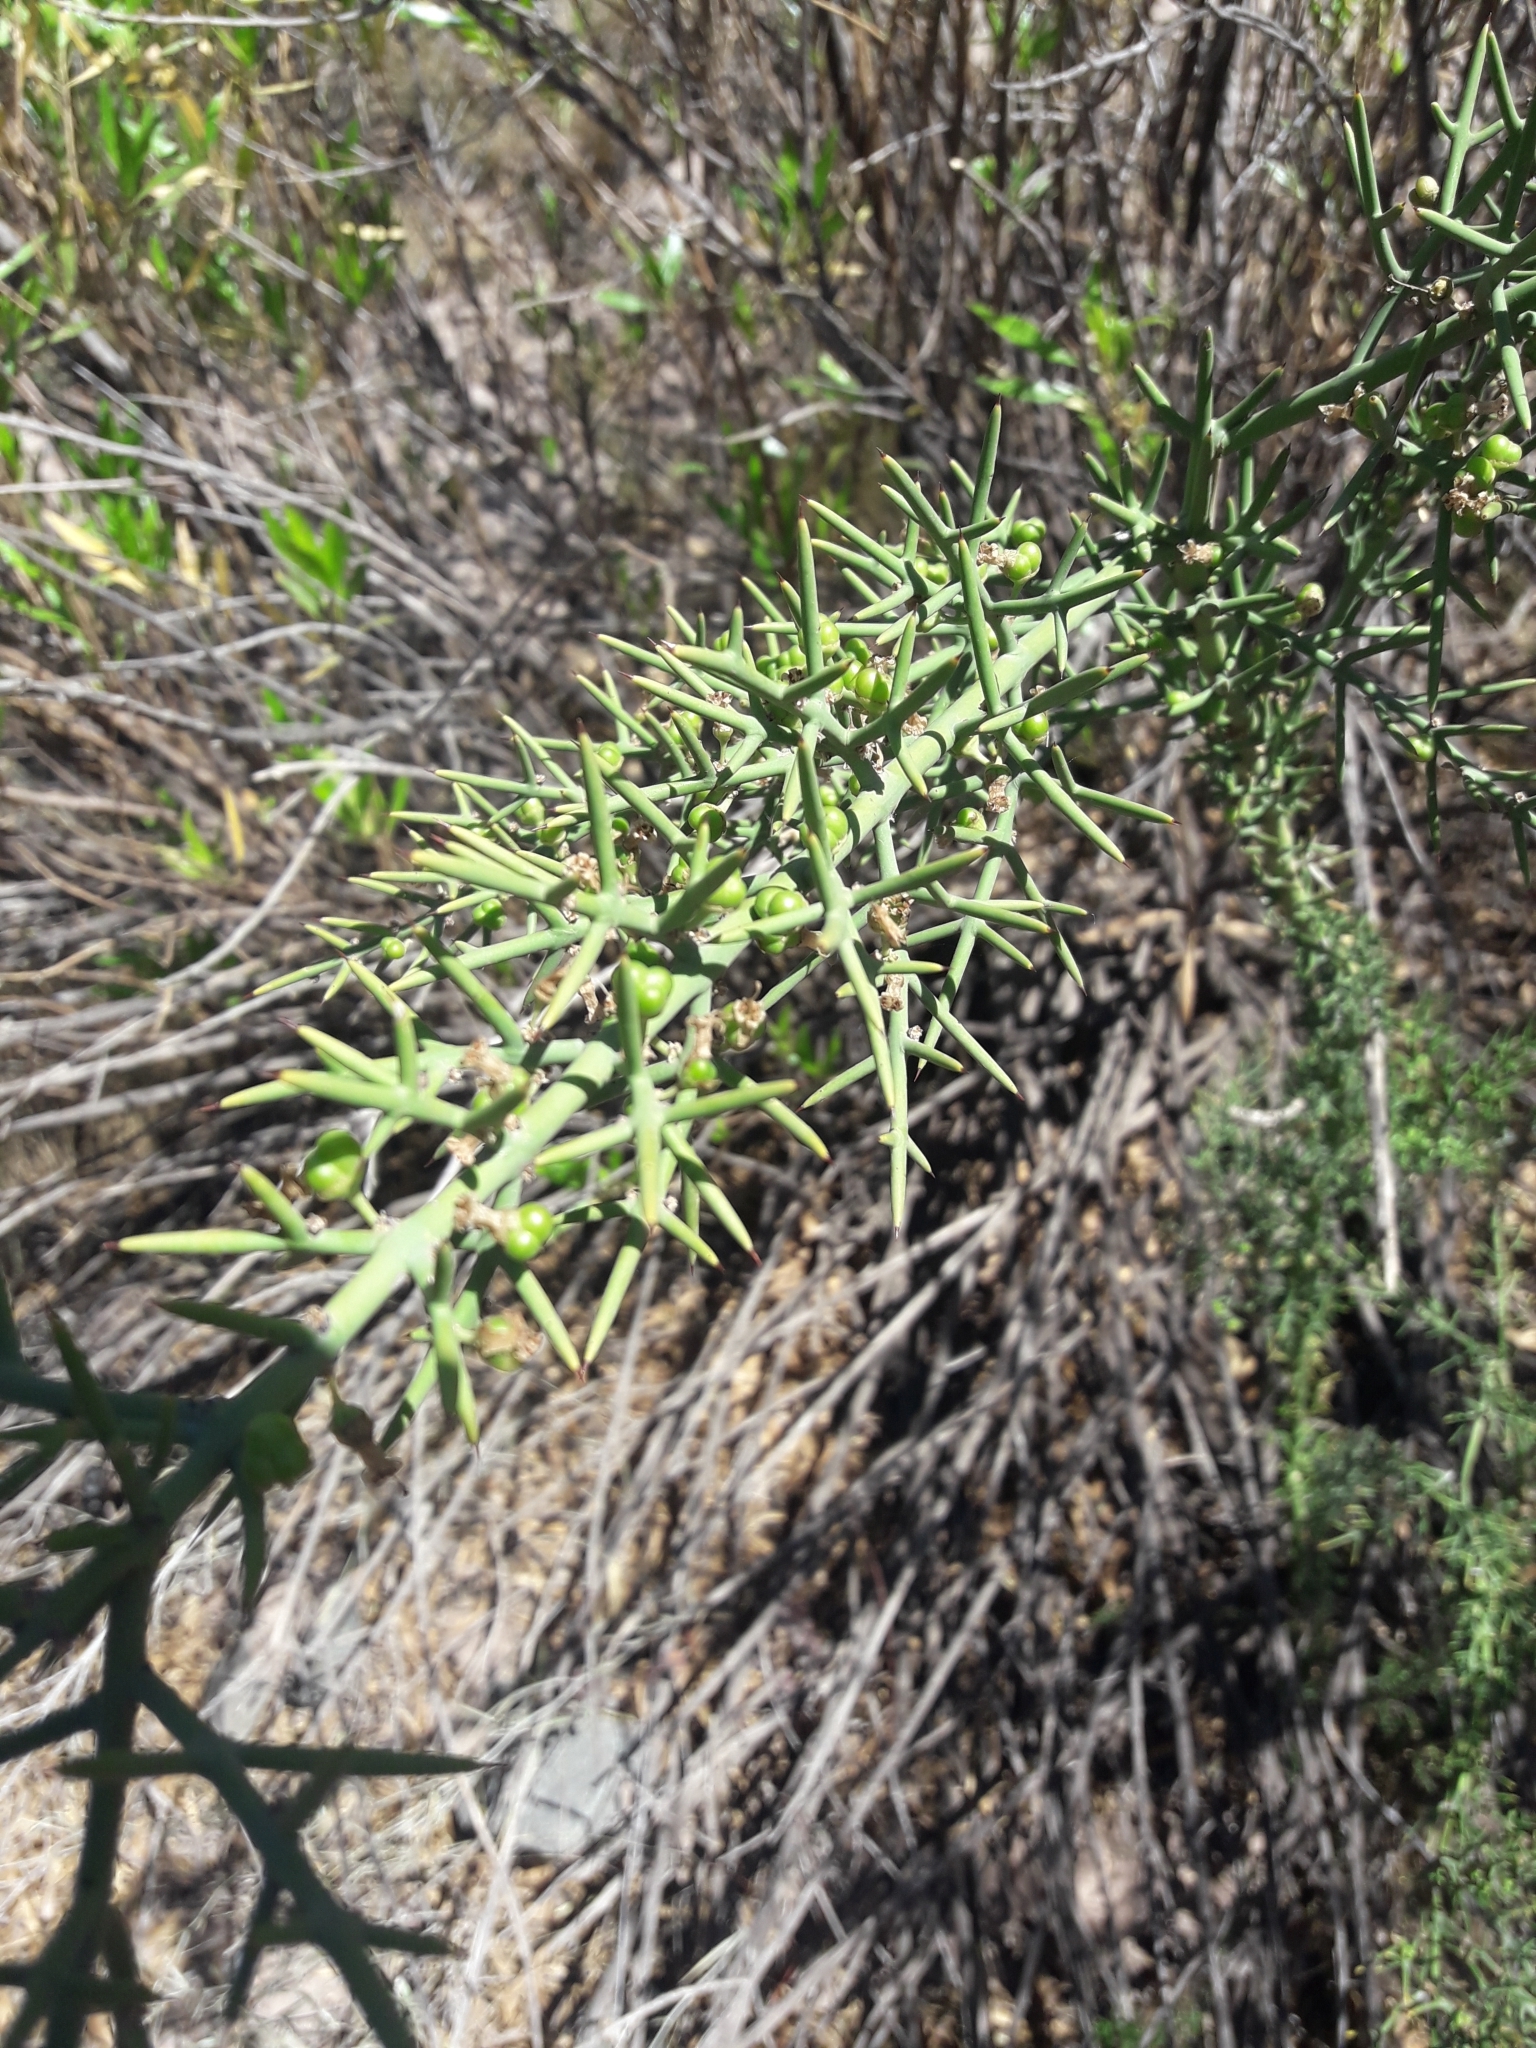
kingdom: Plantae
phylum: Tracheophyta
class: Magnoliopsida
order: Rosales
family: Rhamnaceae
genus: Colletia
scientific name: Colletia spinosissima
